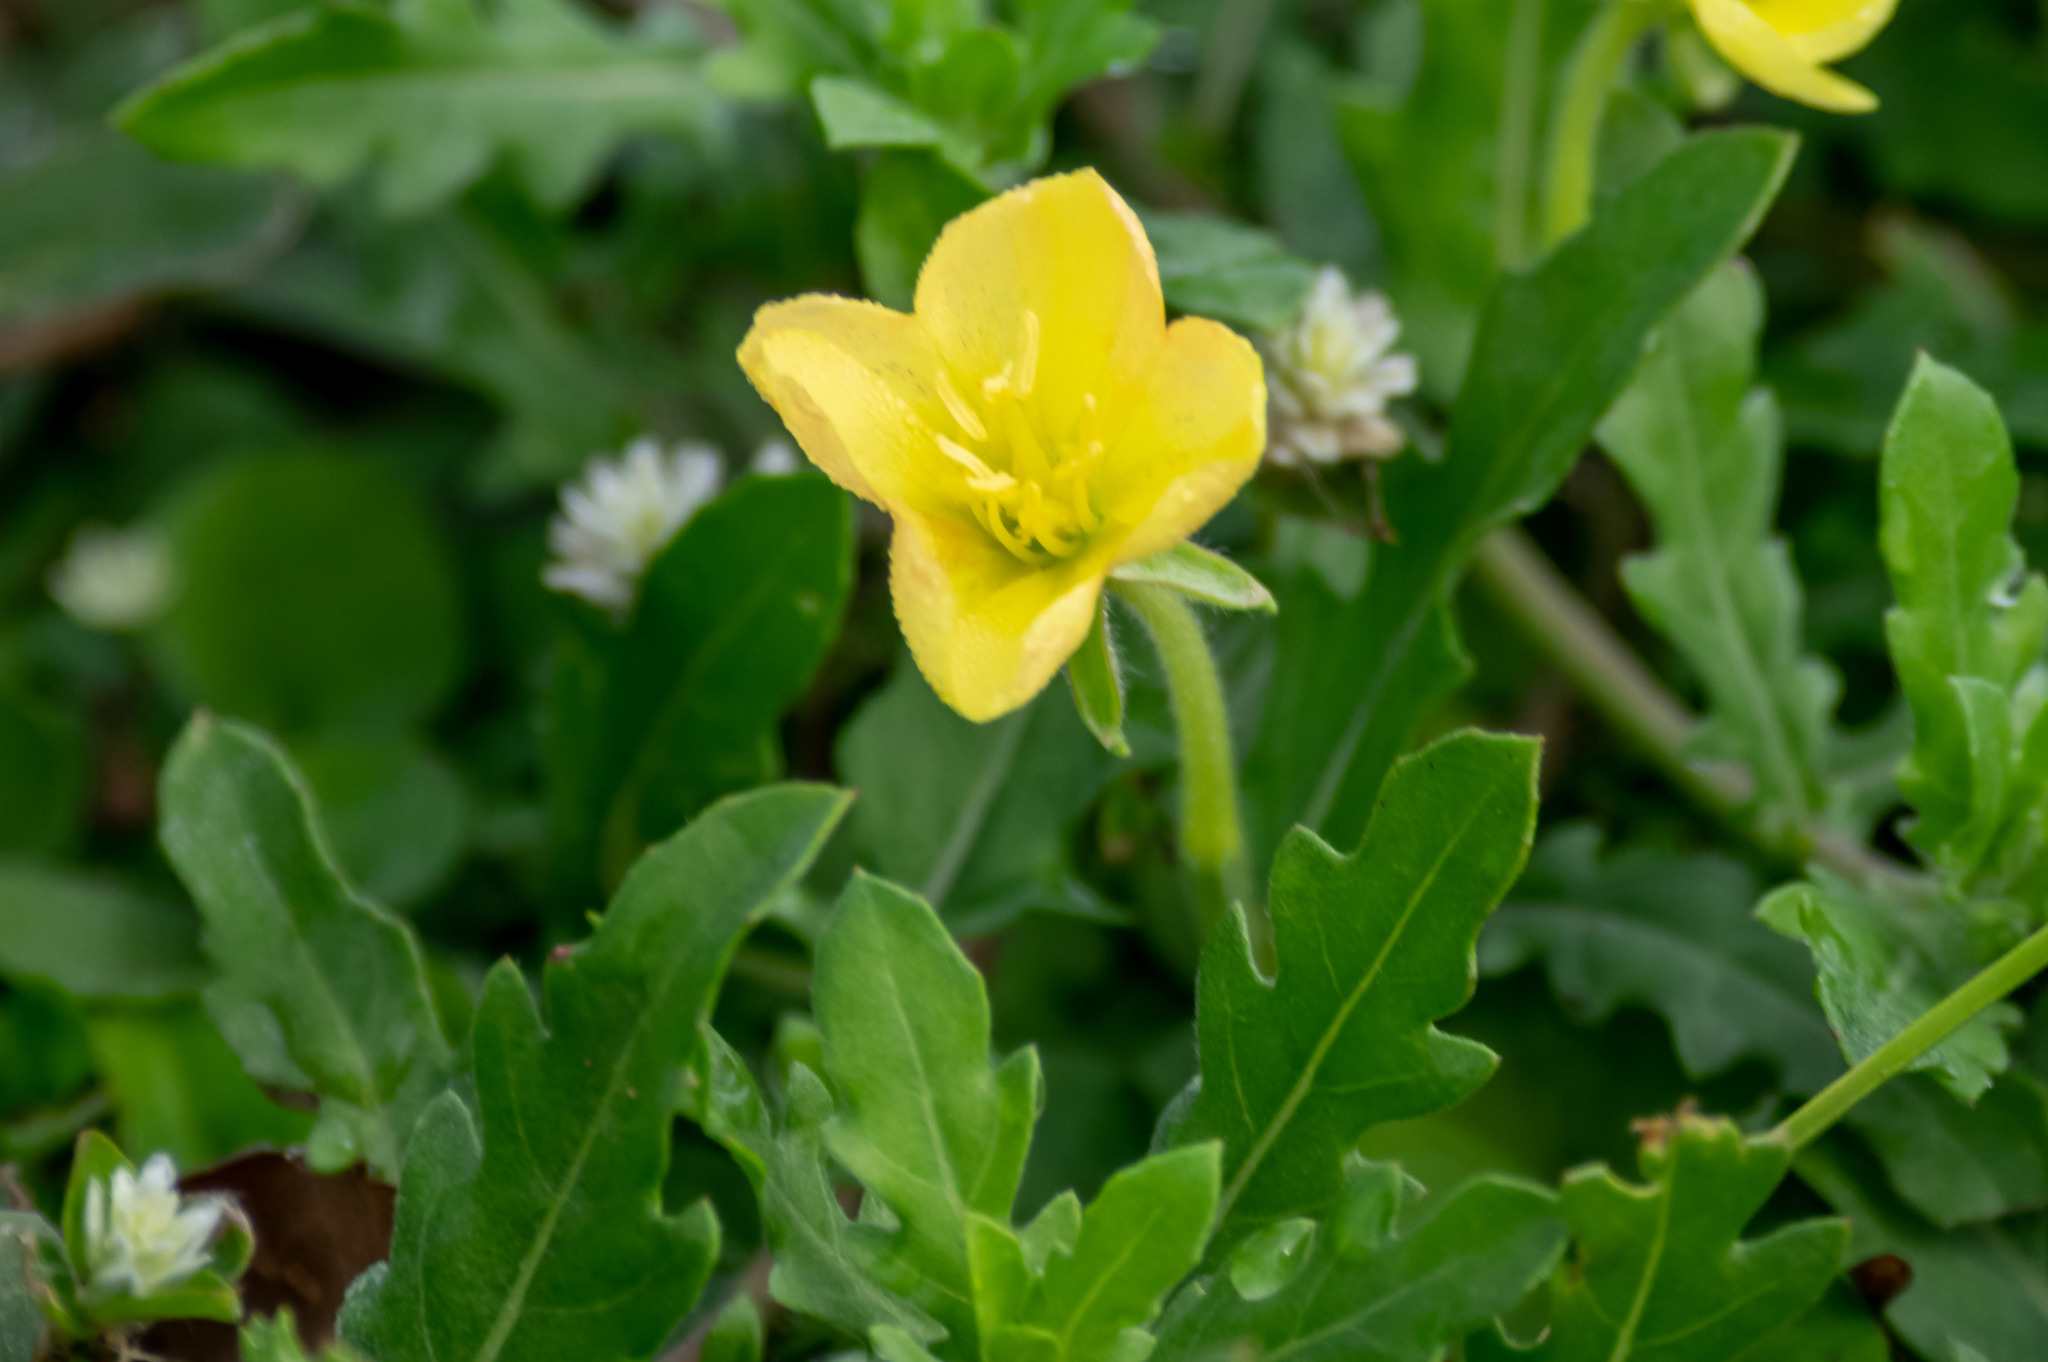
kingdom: Plantae
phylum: Tracheophyta
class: Magnoliopsida
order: Myrtales
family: Onagraceae
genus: Oenothera
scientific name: Oenothera laciniata
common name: Cut-leaved evening-primrose
